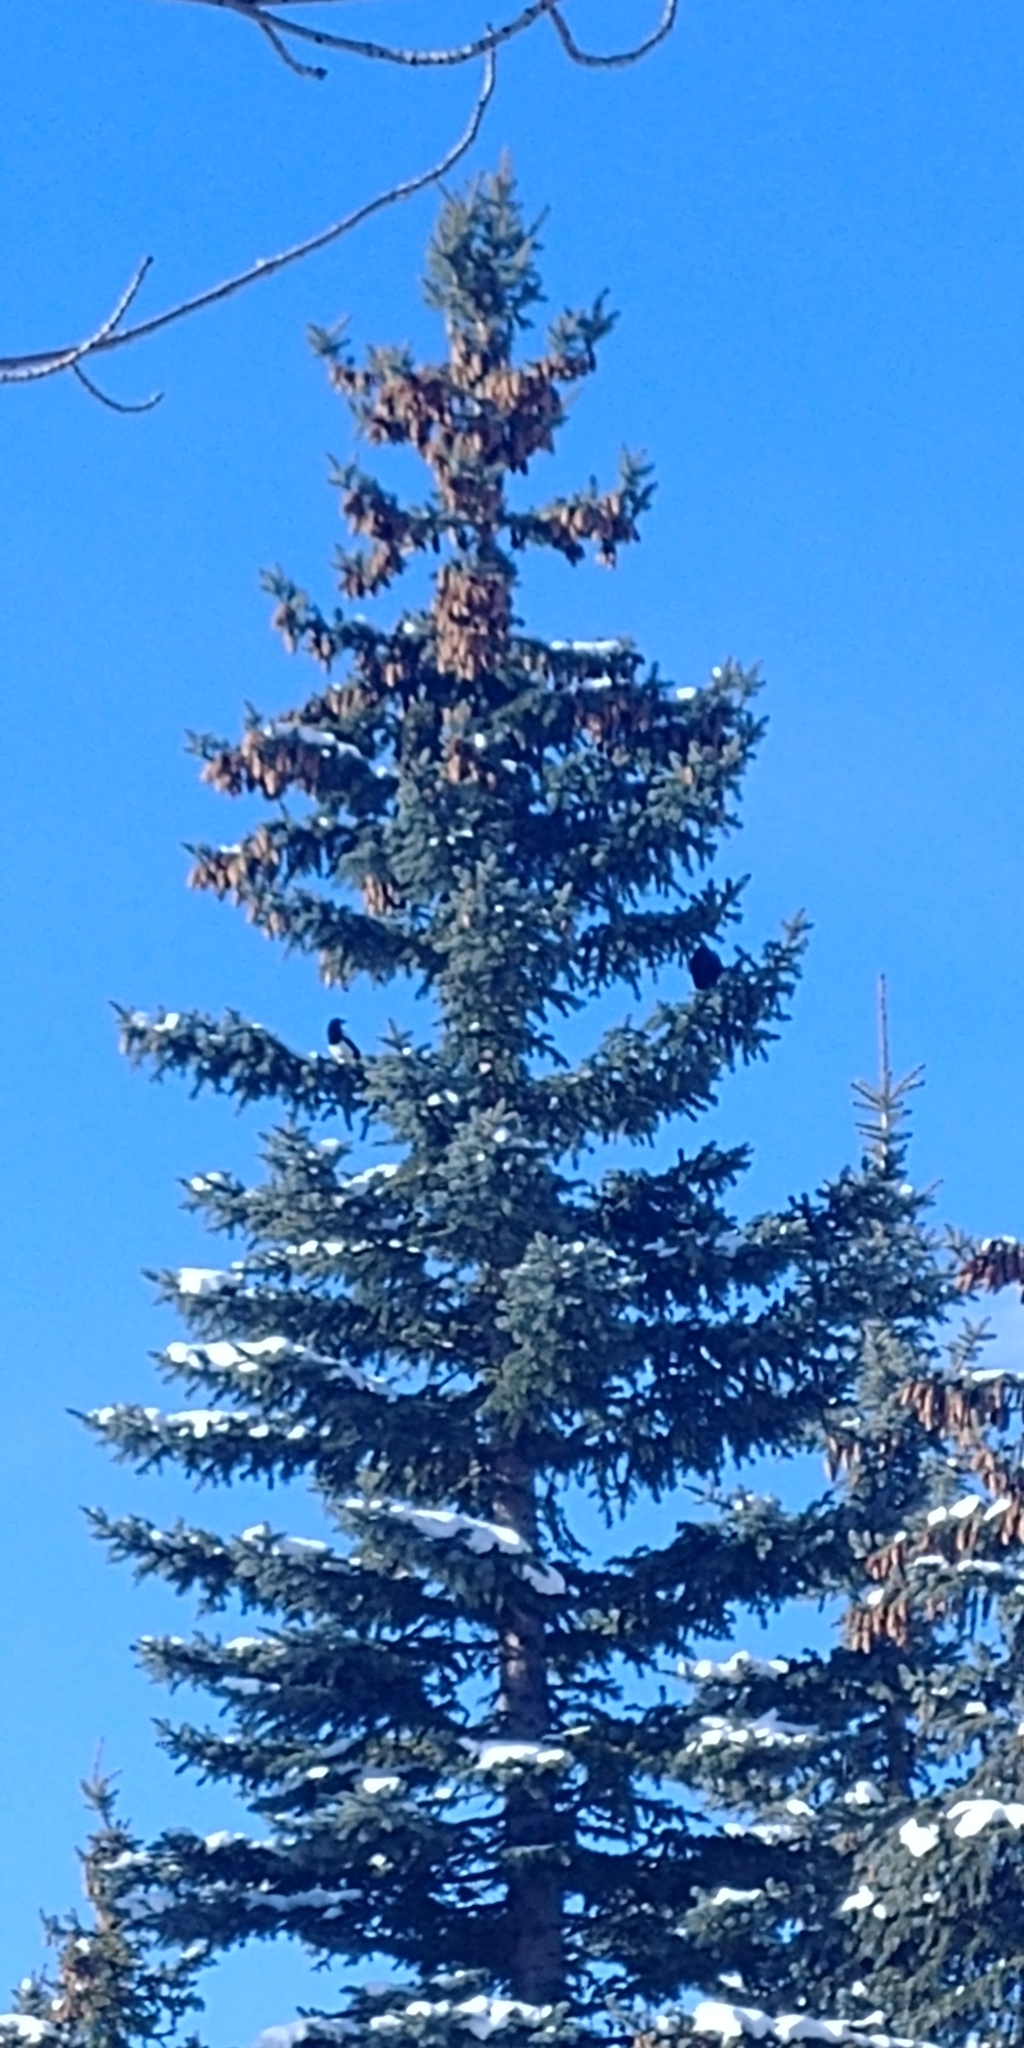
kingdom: Animalia
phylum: Chordata
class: Aves
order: Passeriformes
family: Corvidae
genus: Pica
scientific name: Pica hudsonia
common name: Black-billed magpie
